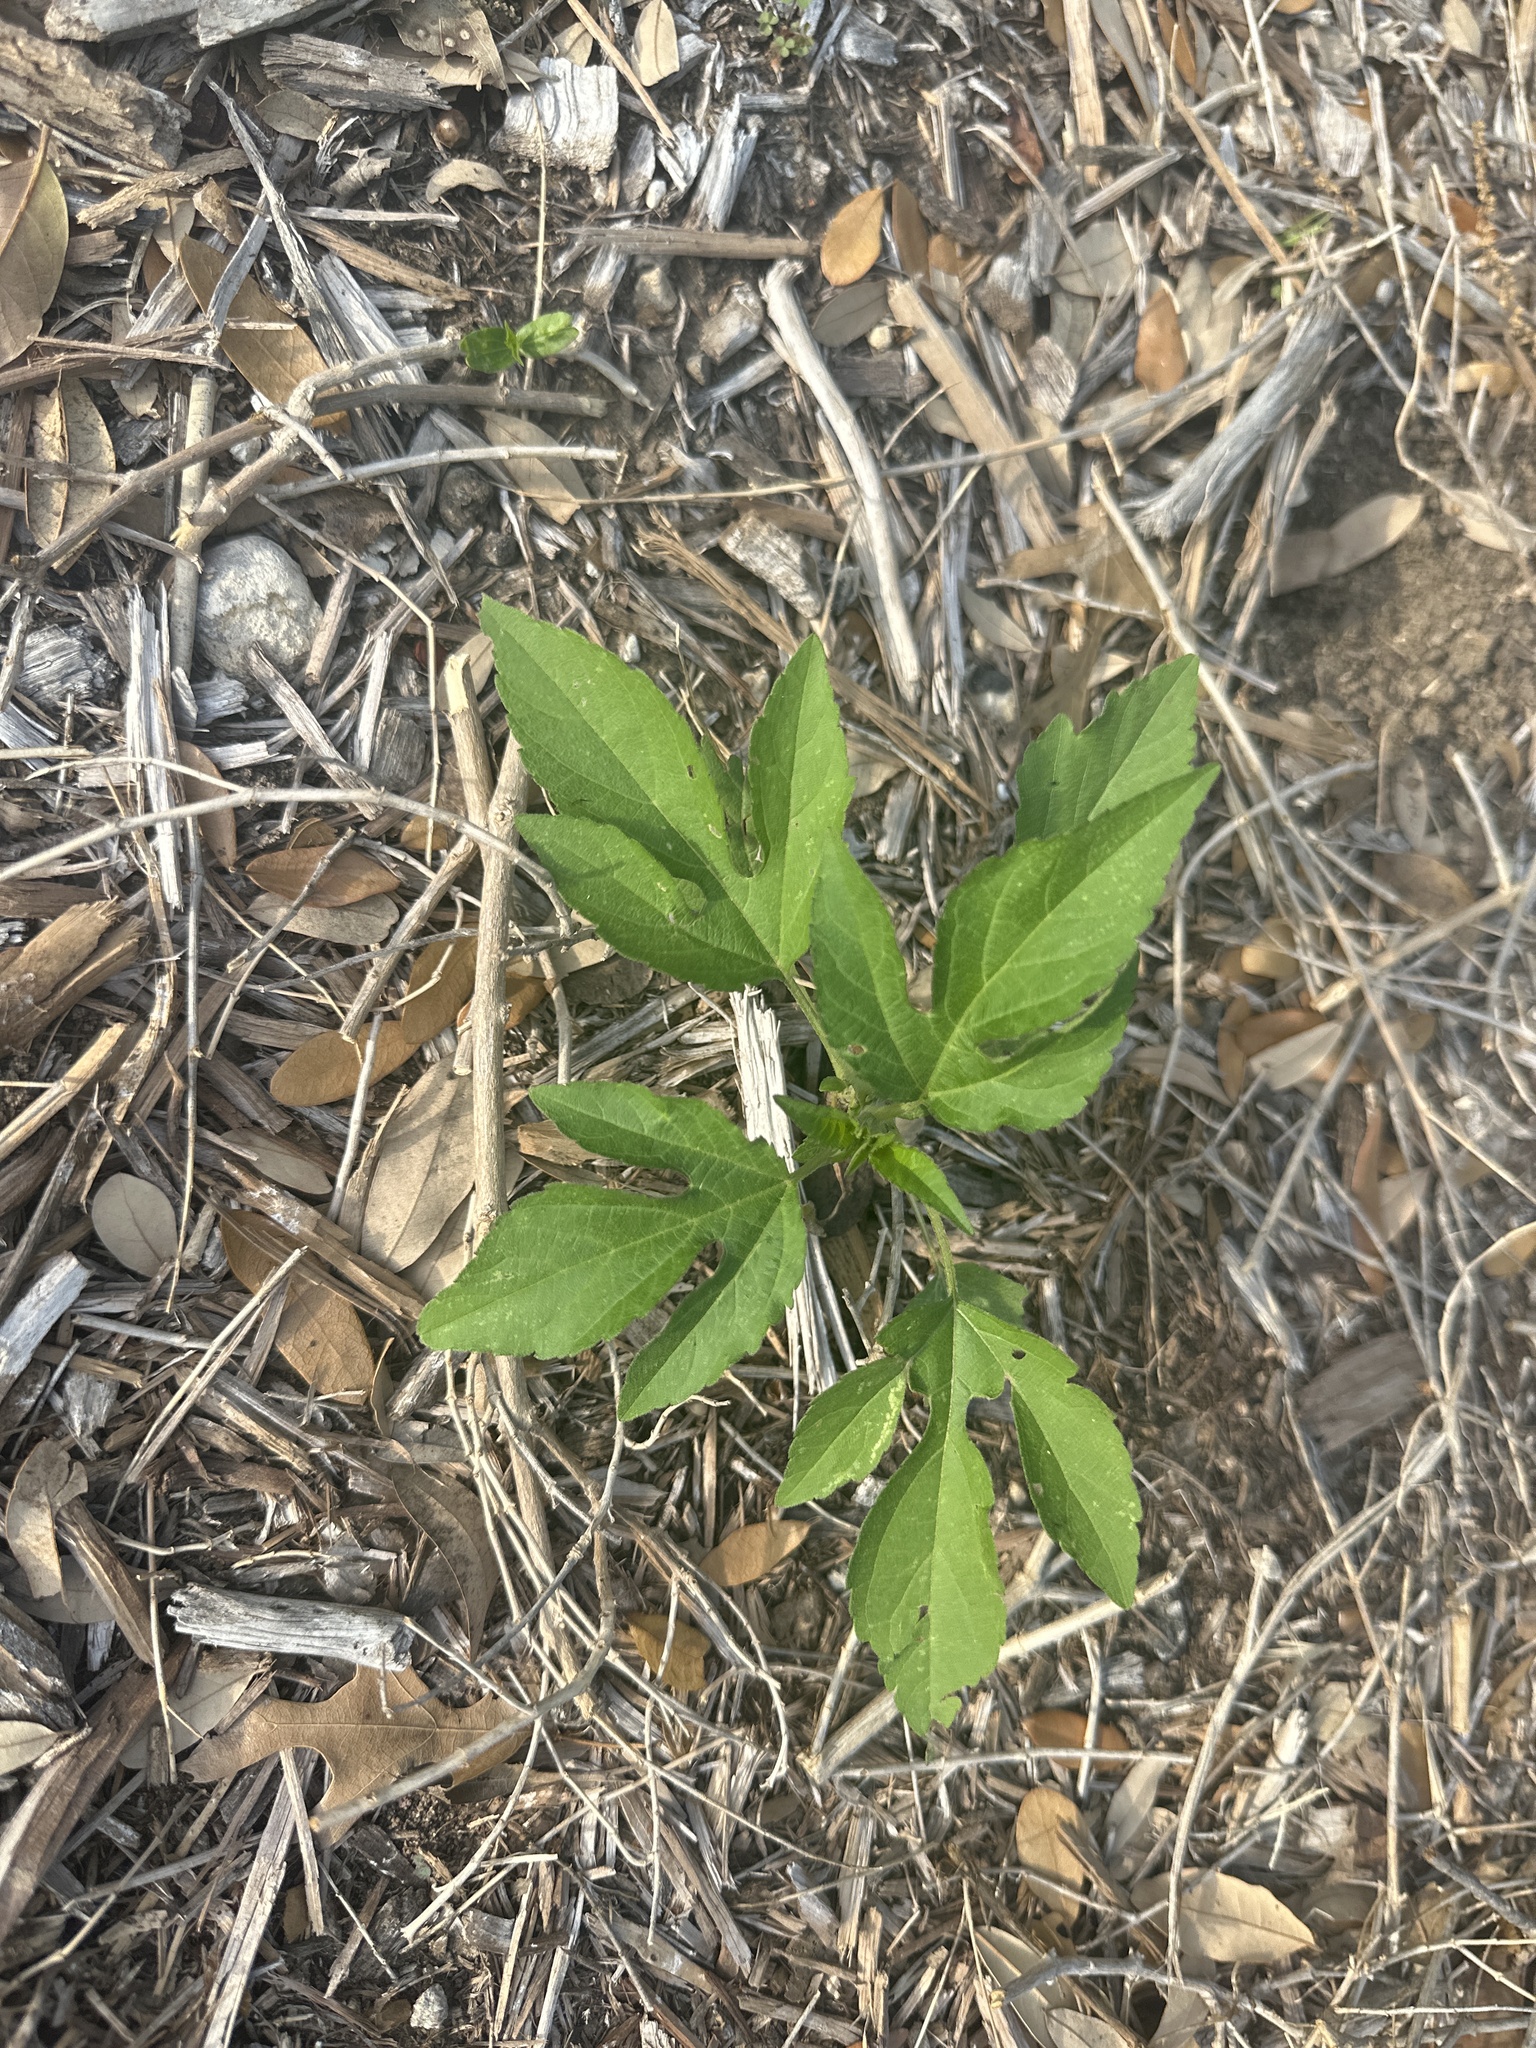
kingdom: Plantae
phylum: Tracheophyta
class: Magnoliopsida
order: Asterales
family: Asteraceae
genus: Ambrosia
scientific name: Ambrosia trifida
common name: Giant ragweed
